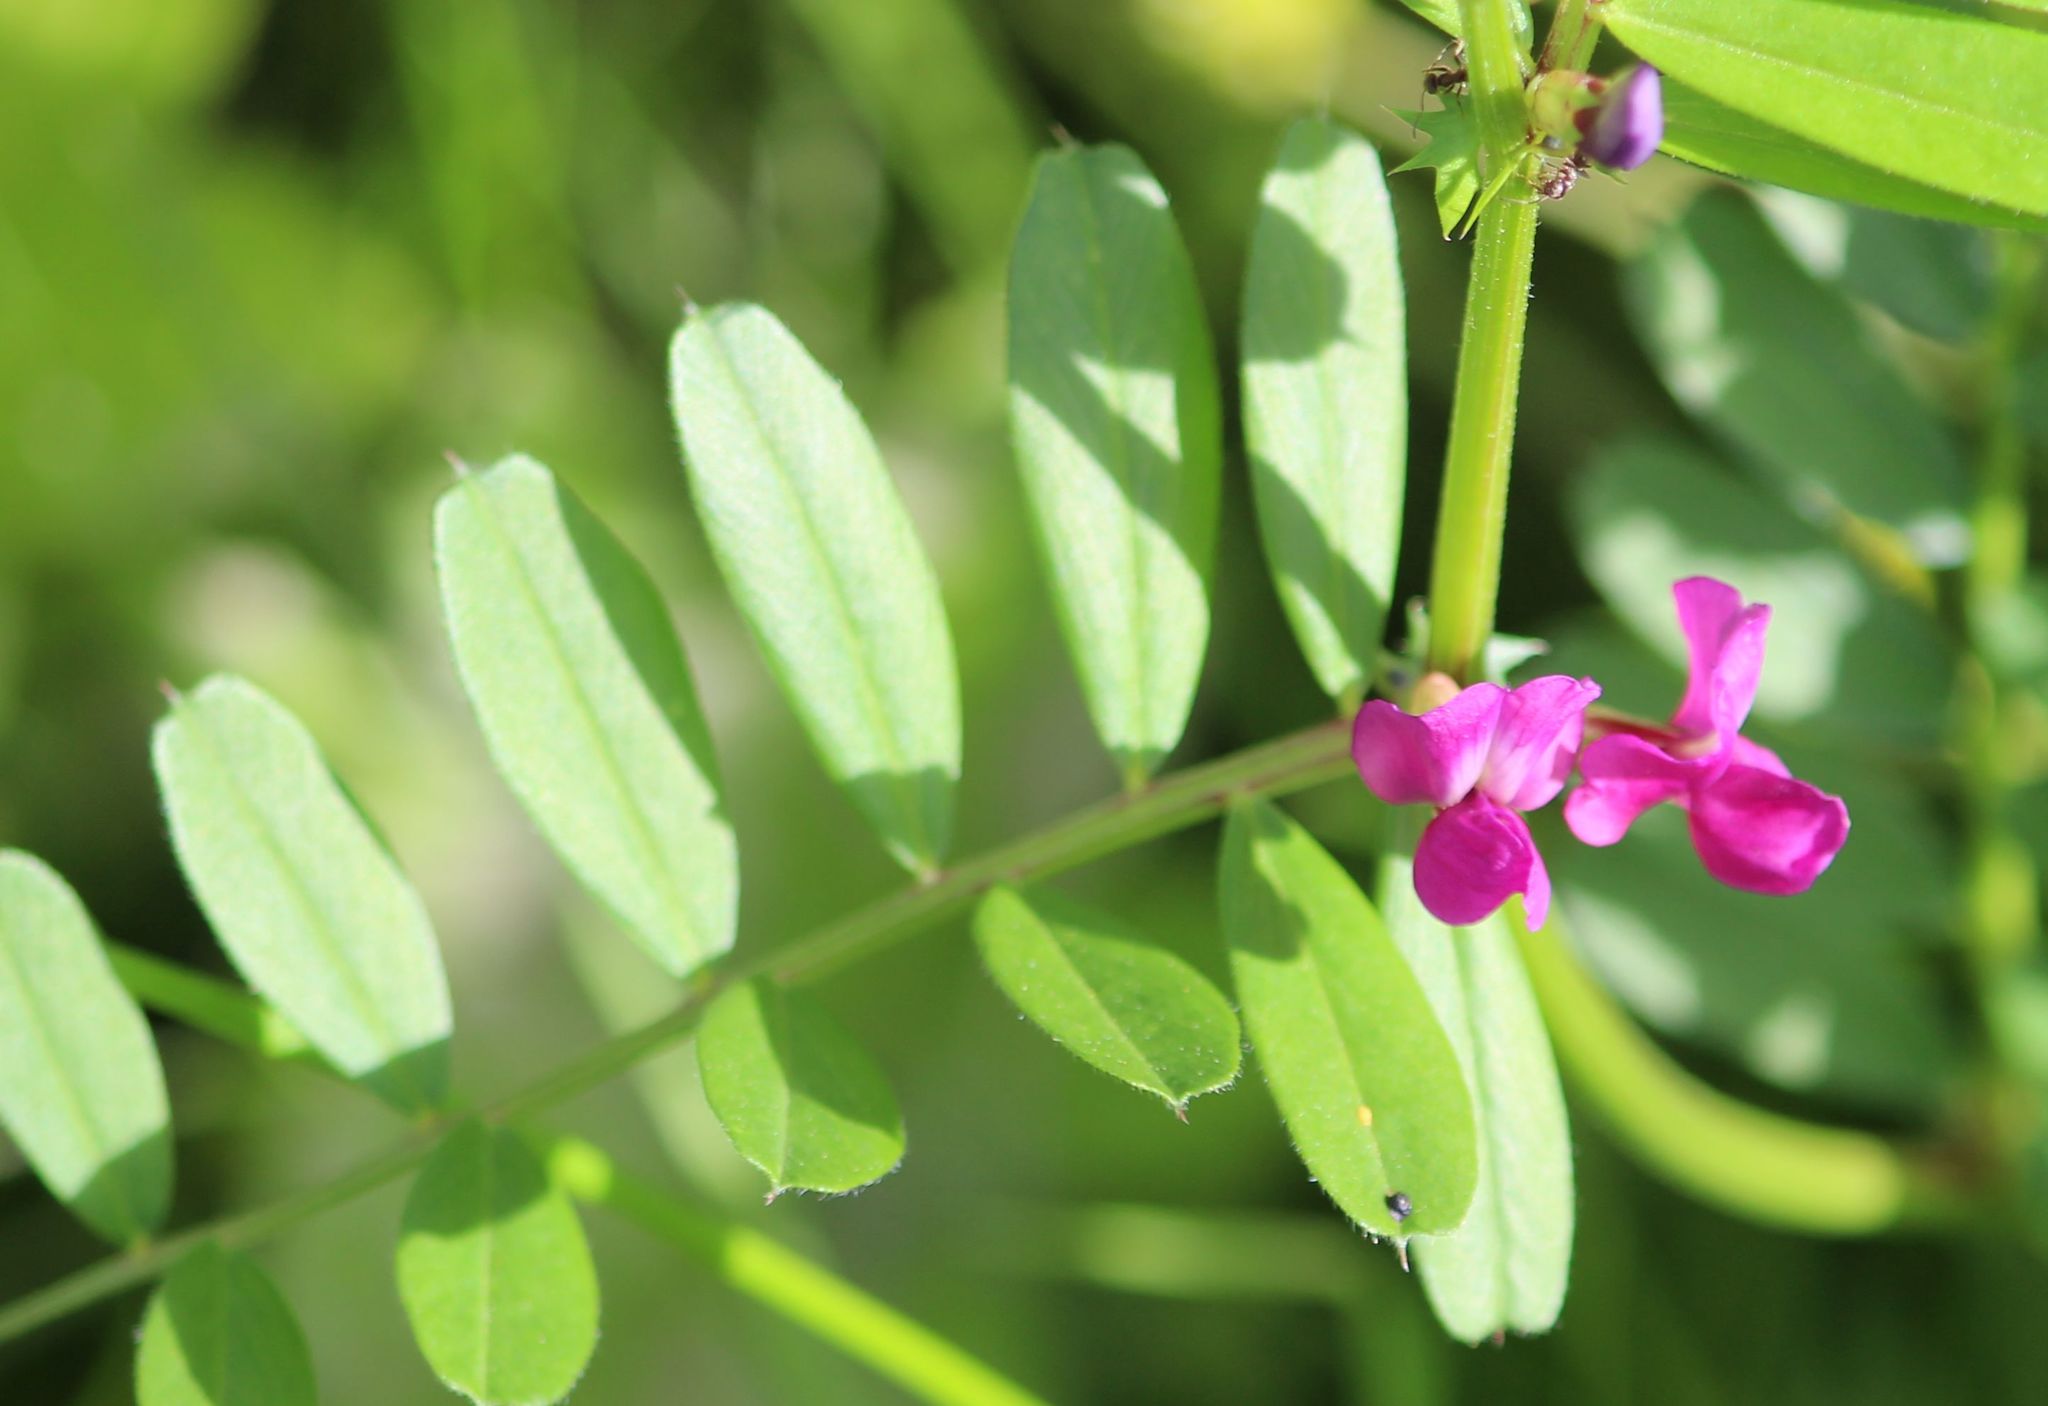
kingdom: Plantae
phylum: Tracheophyta
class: Magnoliopsida
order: Fabales
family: Fabaceae
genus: Vicia
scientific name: Vicia sativa
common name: Garden vetch
